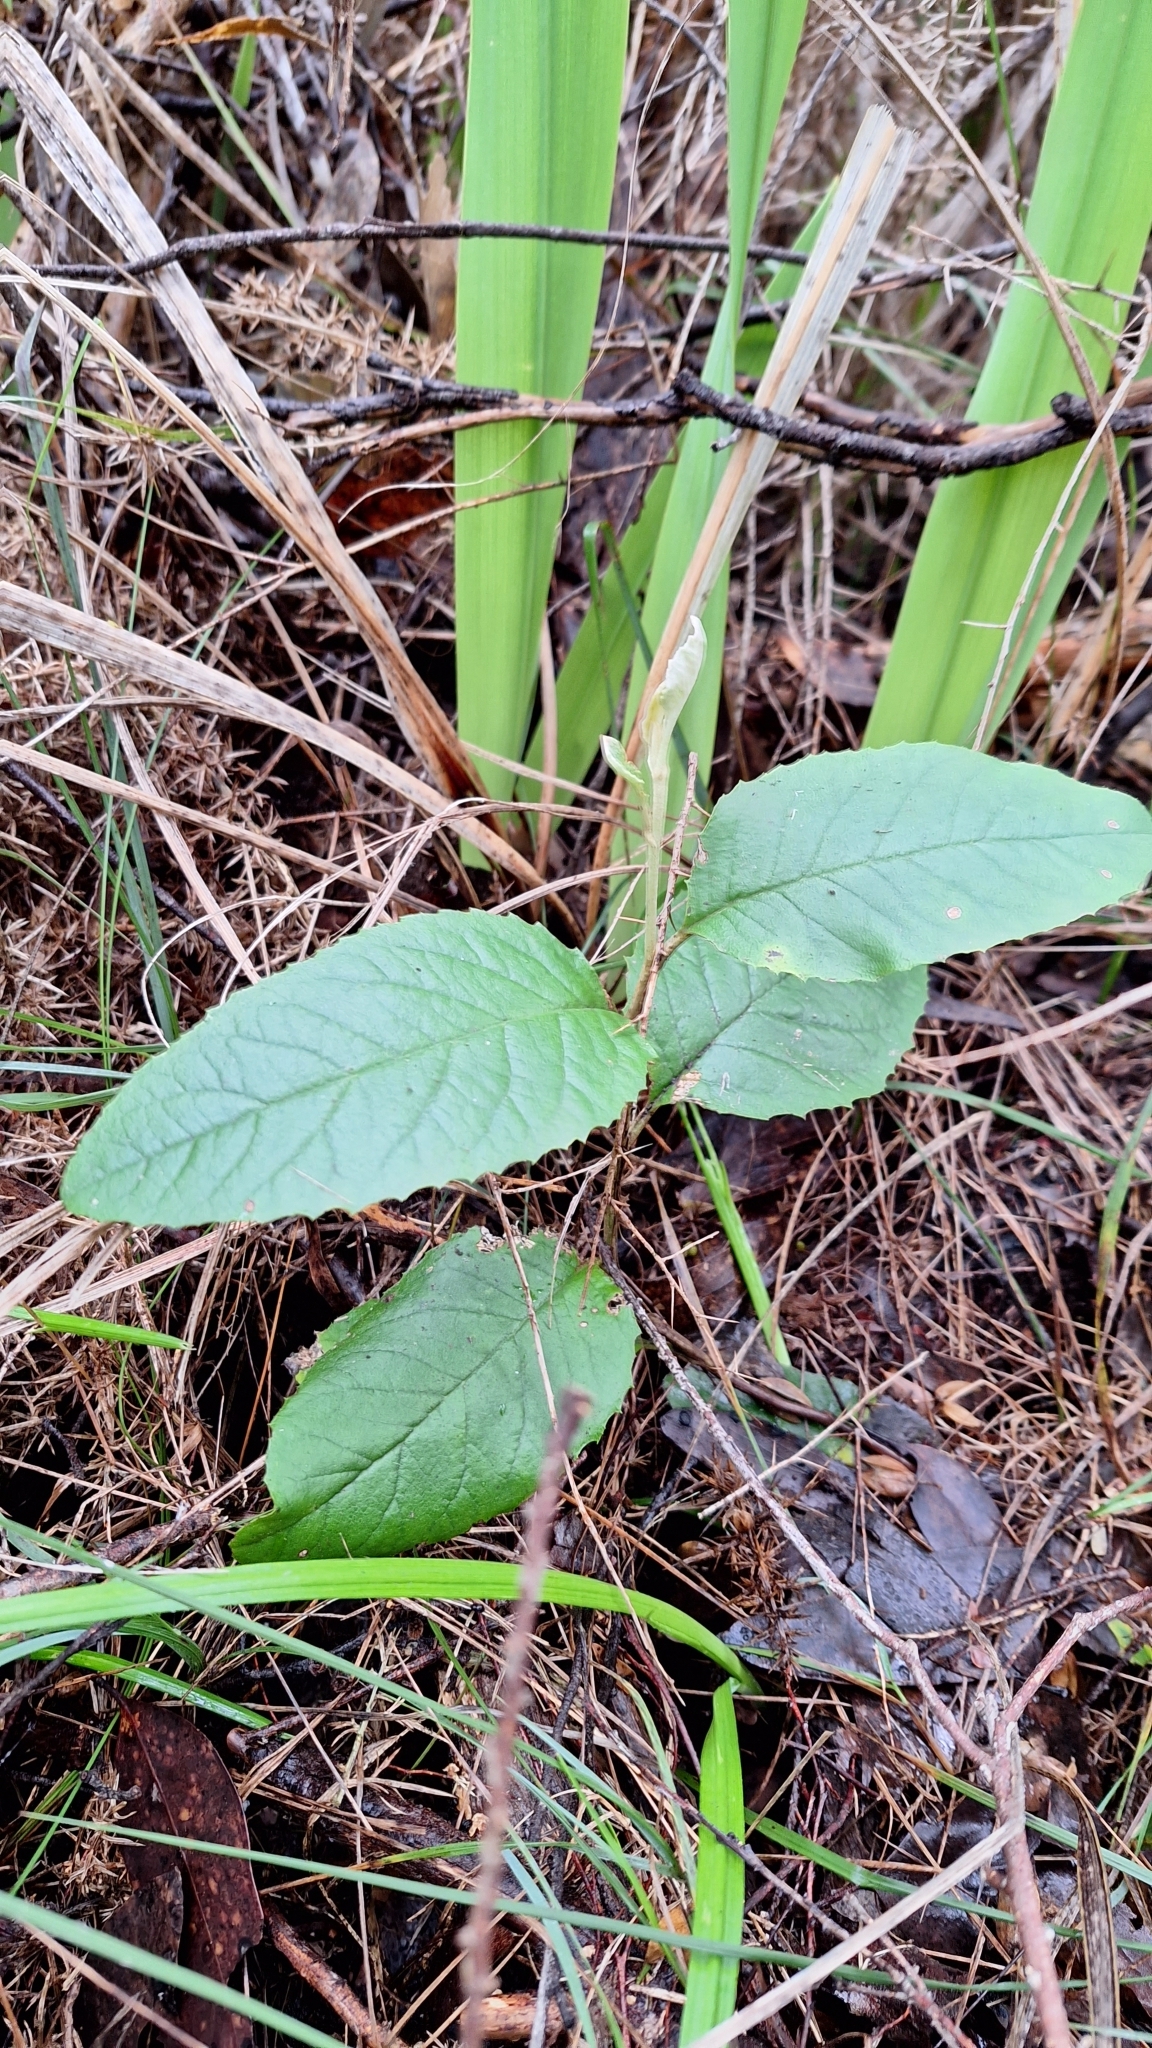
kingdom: Plantae
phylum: Tracheophyta
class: Magnoliopsida
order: Asterales
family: Asteraceae
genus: Olearia
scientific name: Olearia grandiflora
